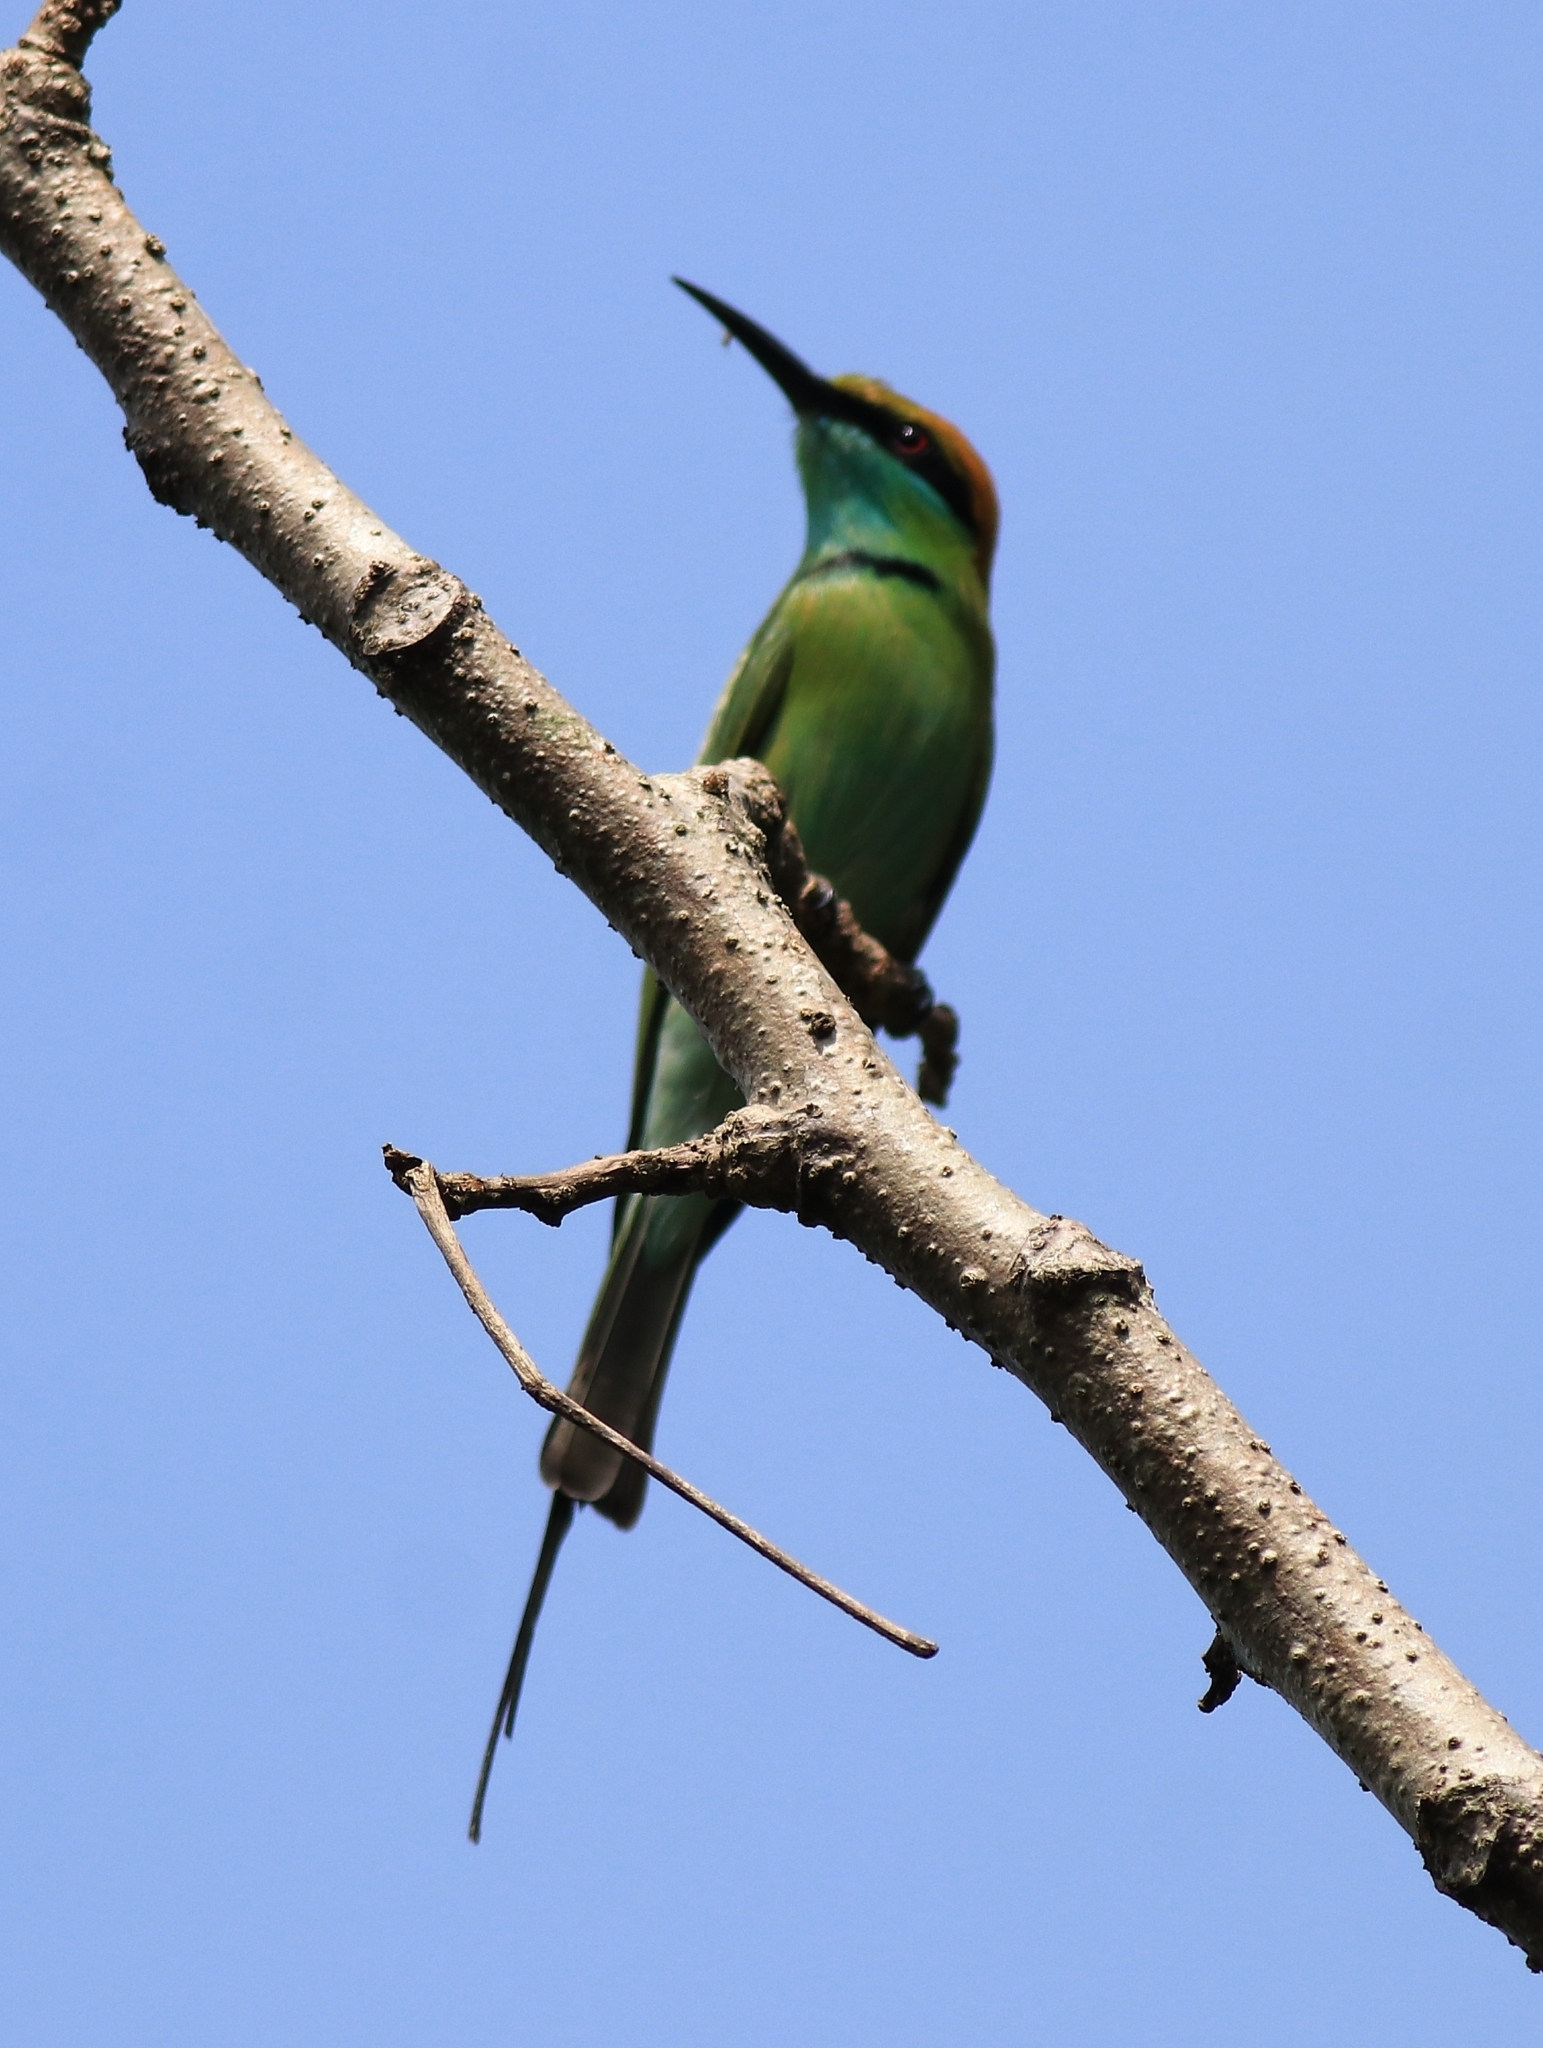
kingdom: Animalia
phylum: Chordata
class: Aves
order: Coraciiformes
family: Meropidae
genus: Merops
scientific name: Merops orientalis
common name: Green bee-eater
